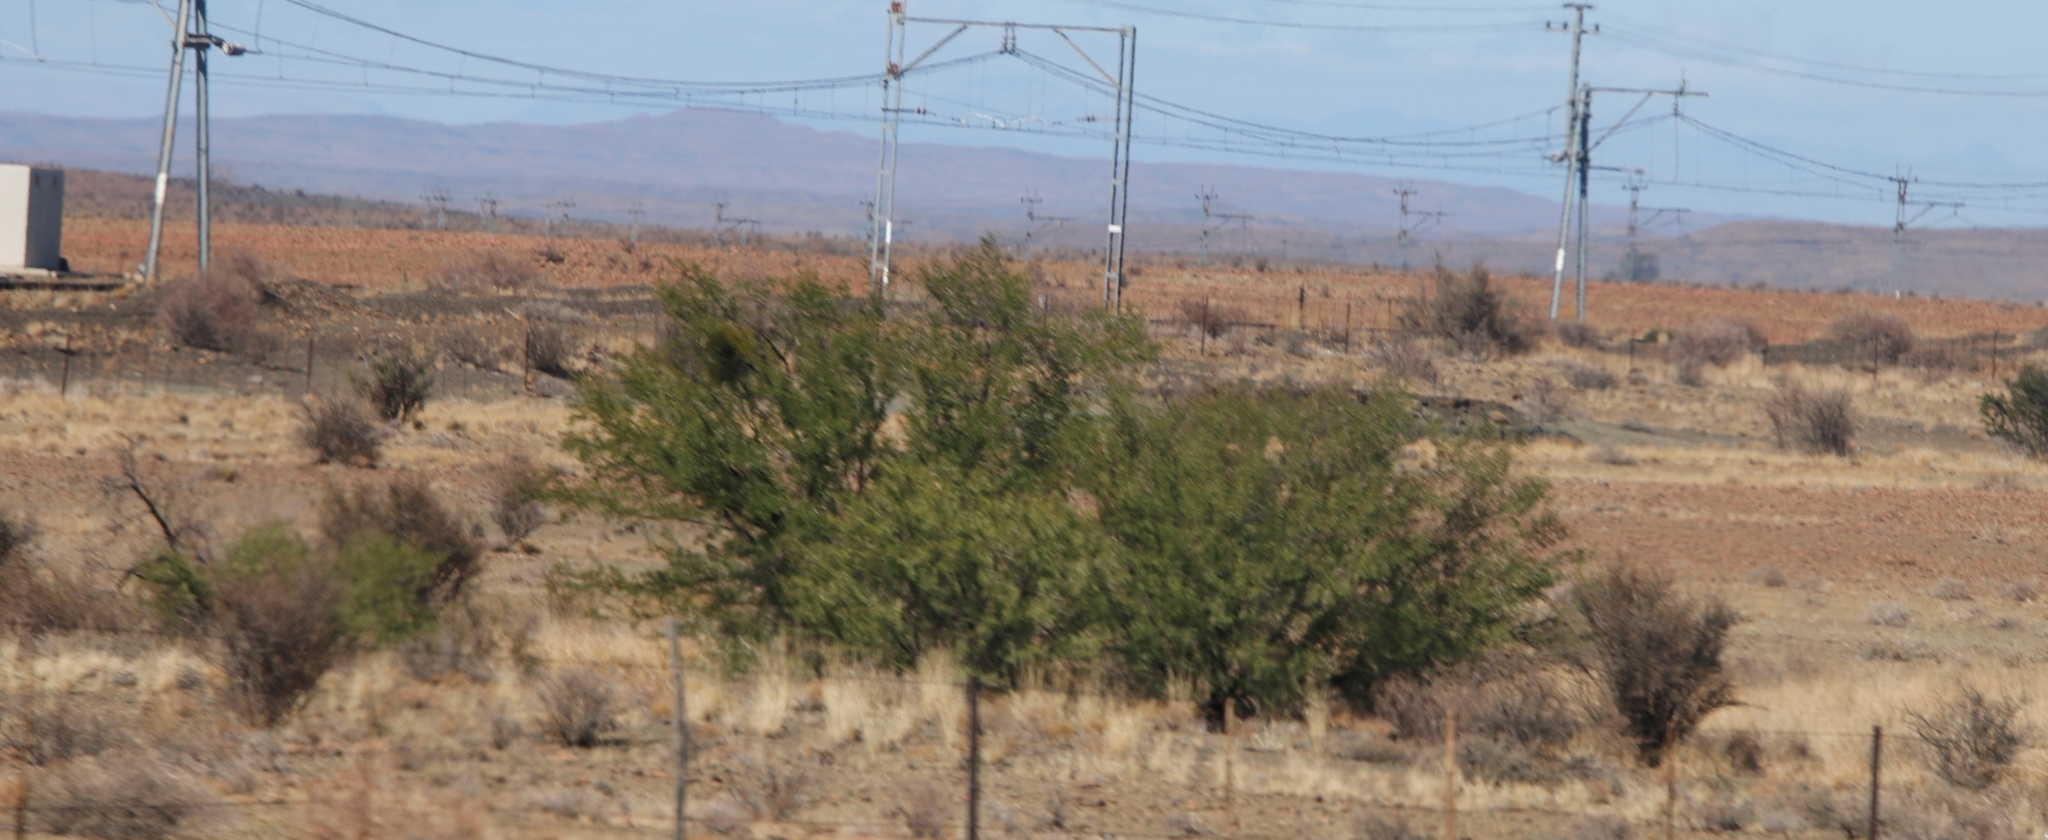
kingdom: Plantae
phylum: Tracheophyta
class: Magnoliopsida
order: Fabales
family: Fabaceae
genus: Vachellia
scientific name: Vachellia karroo
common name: Sweet thorn
